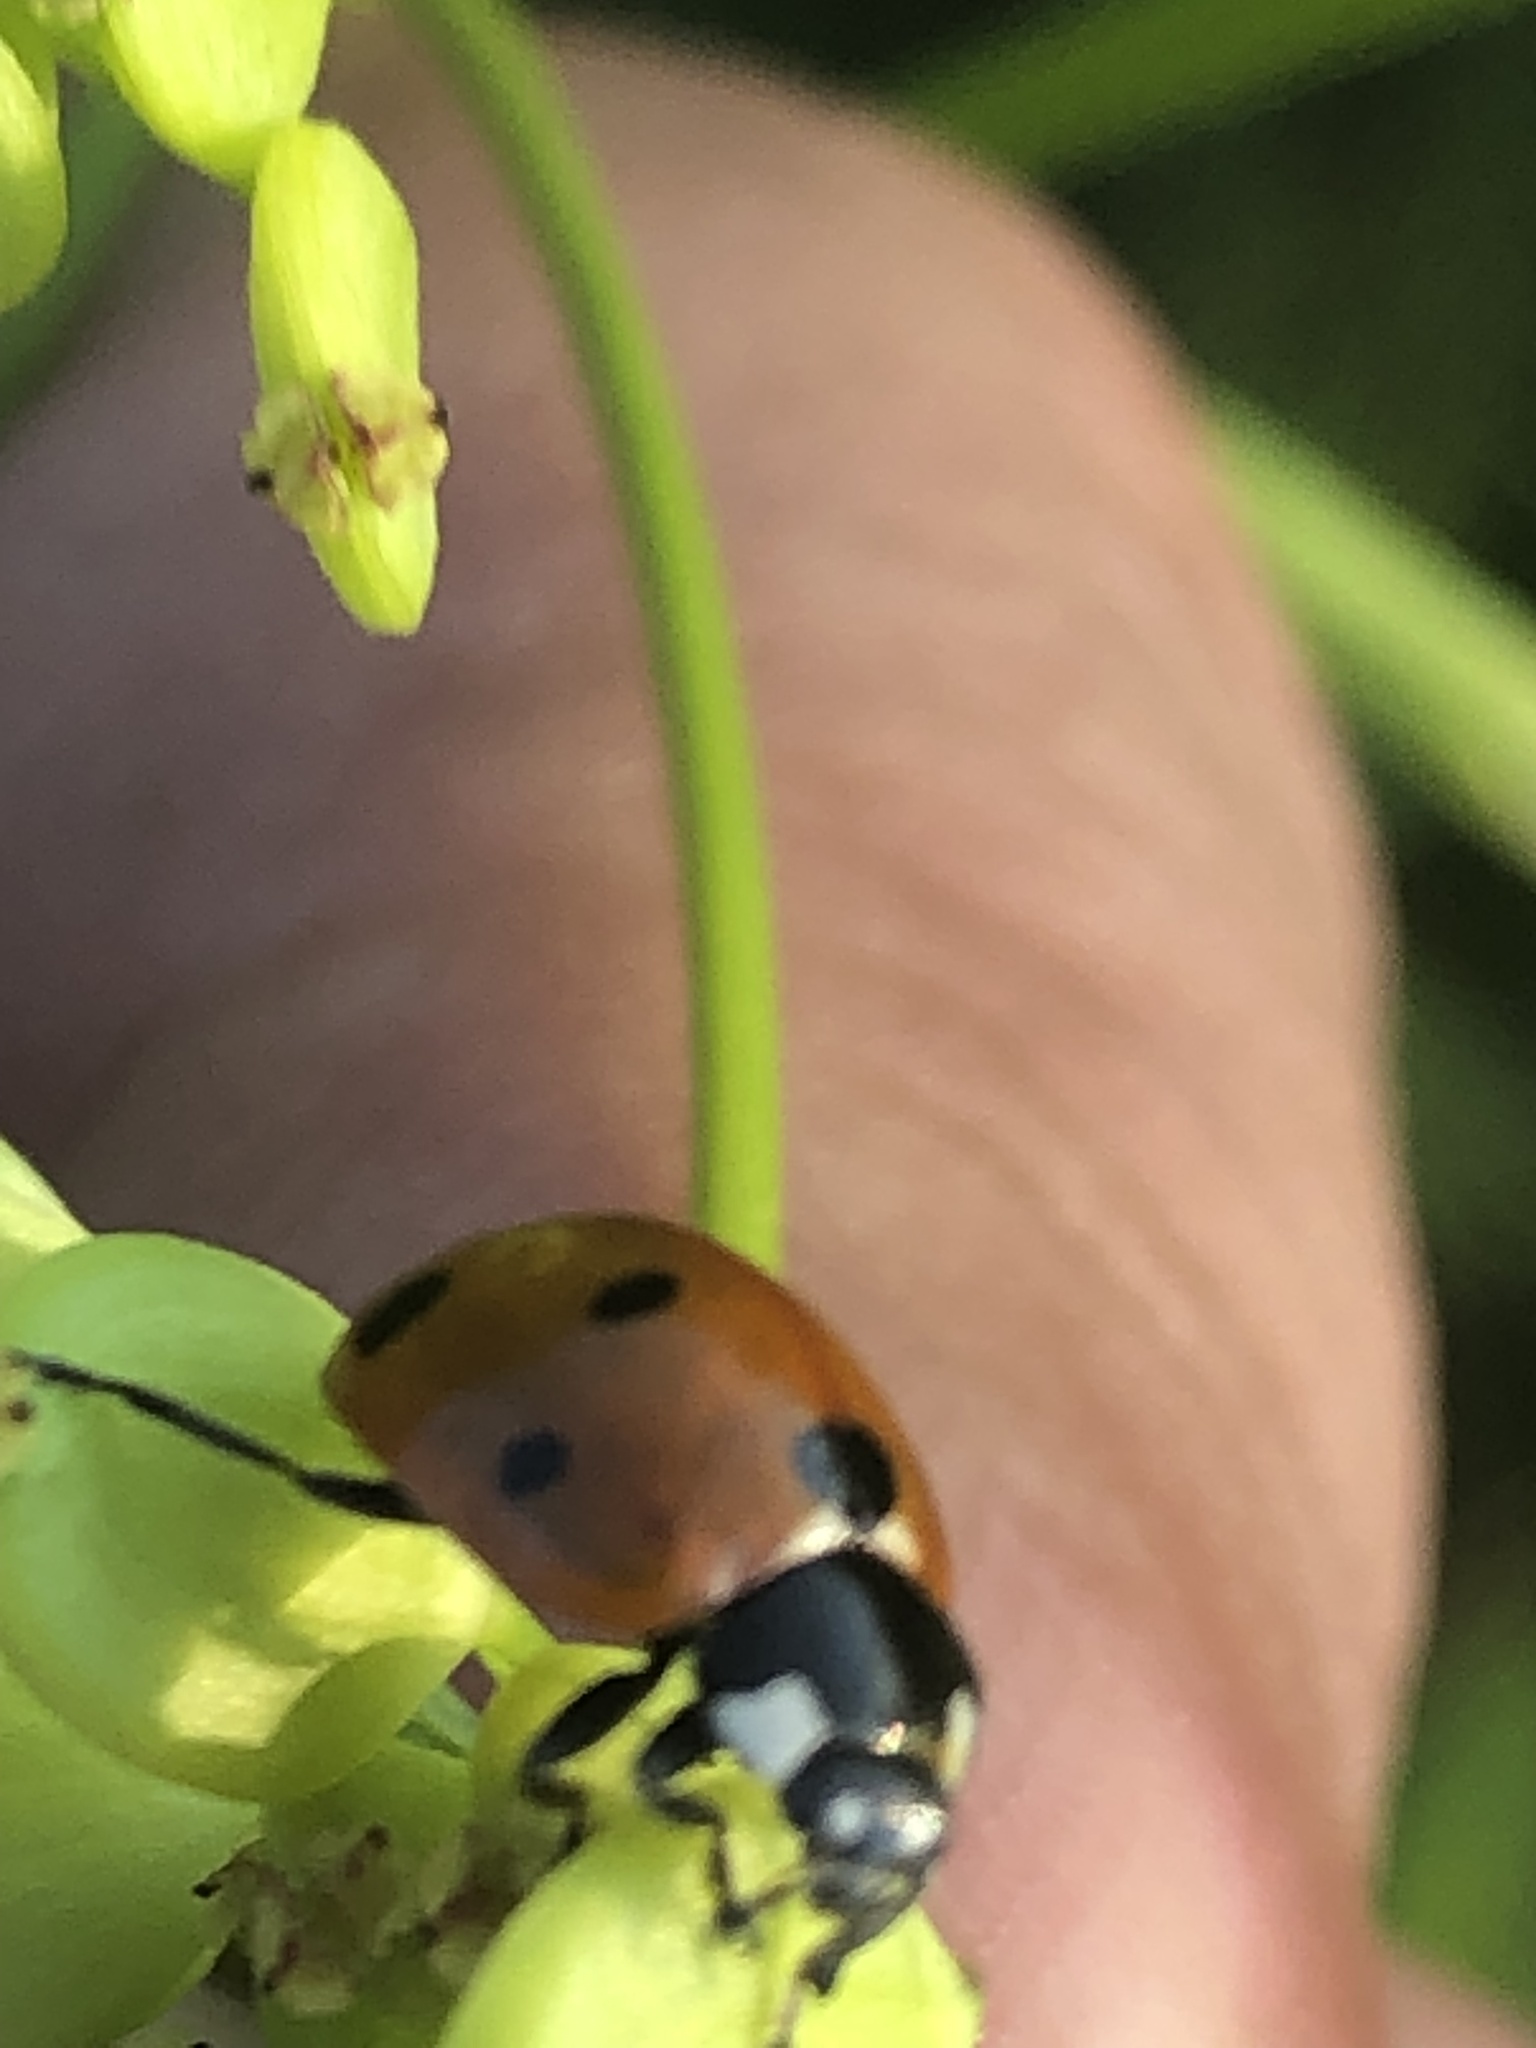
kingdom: Animalia
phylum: Arthropoda
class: Insecta
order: Coleoptera
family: Coccinellidae
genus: Coccinella
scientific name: Coccinella septempunctata
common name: Sevenspotted lady beetle
